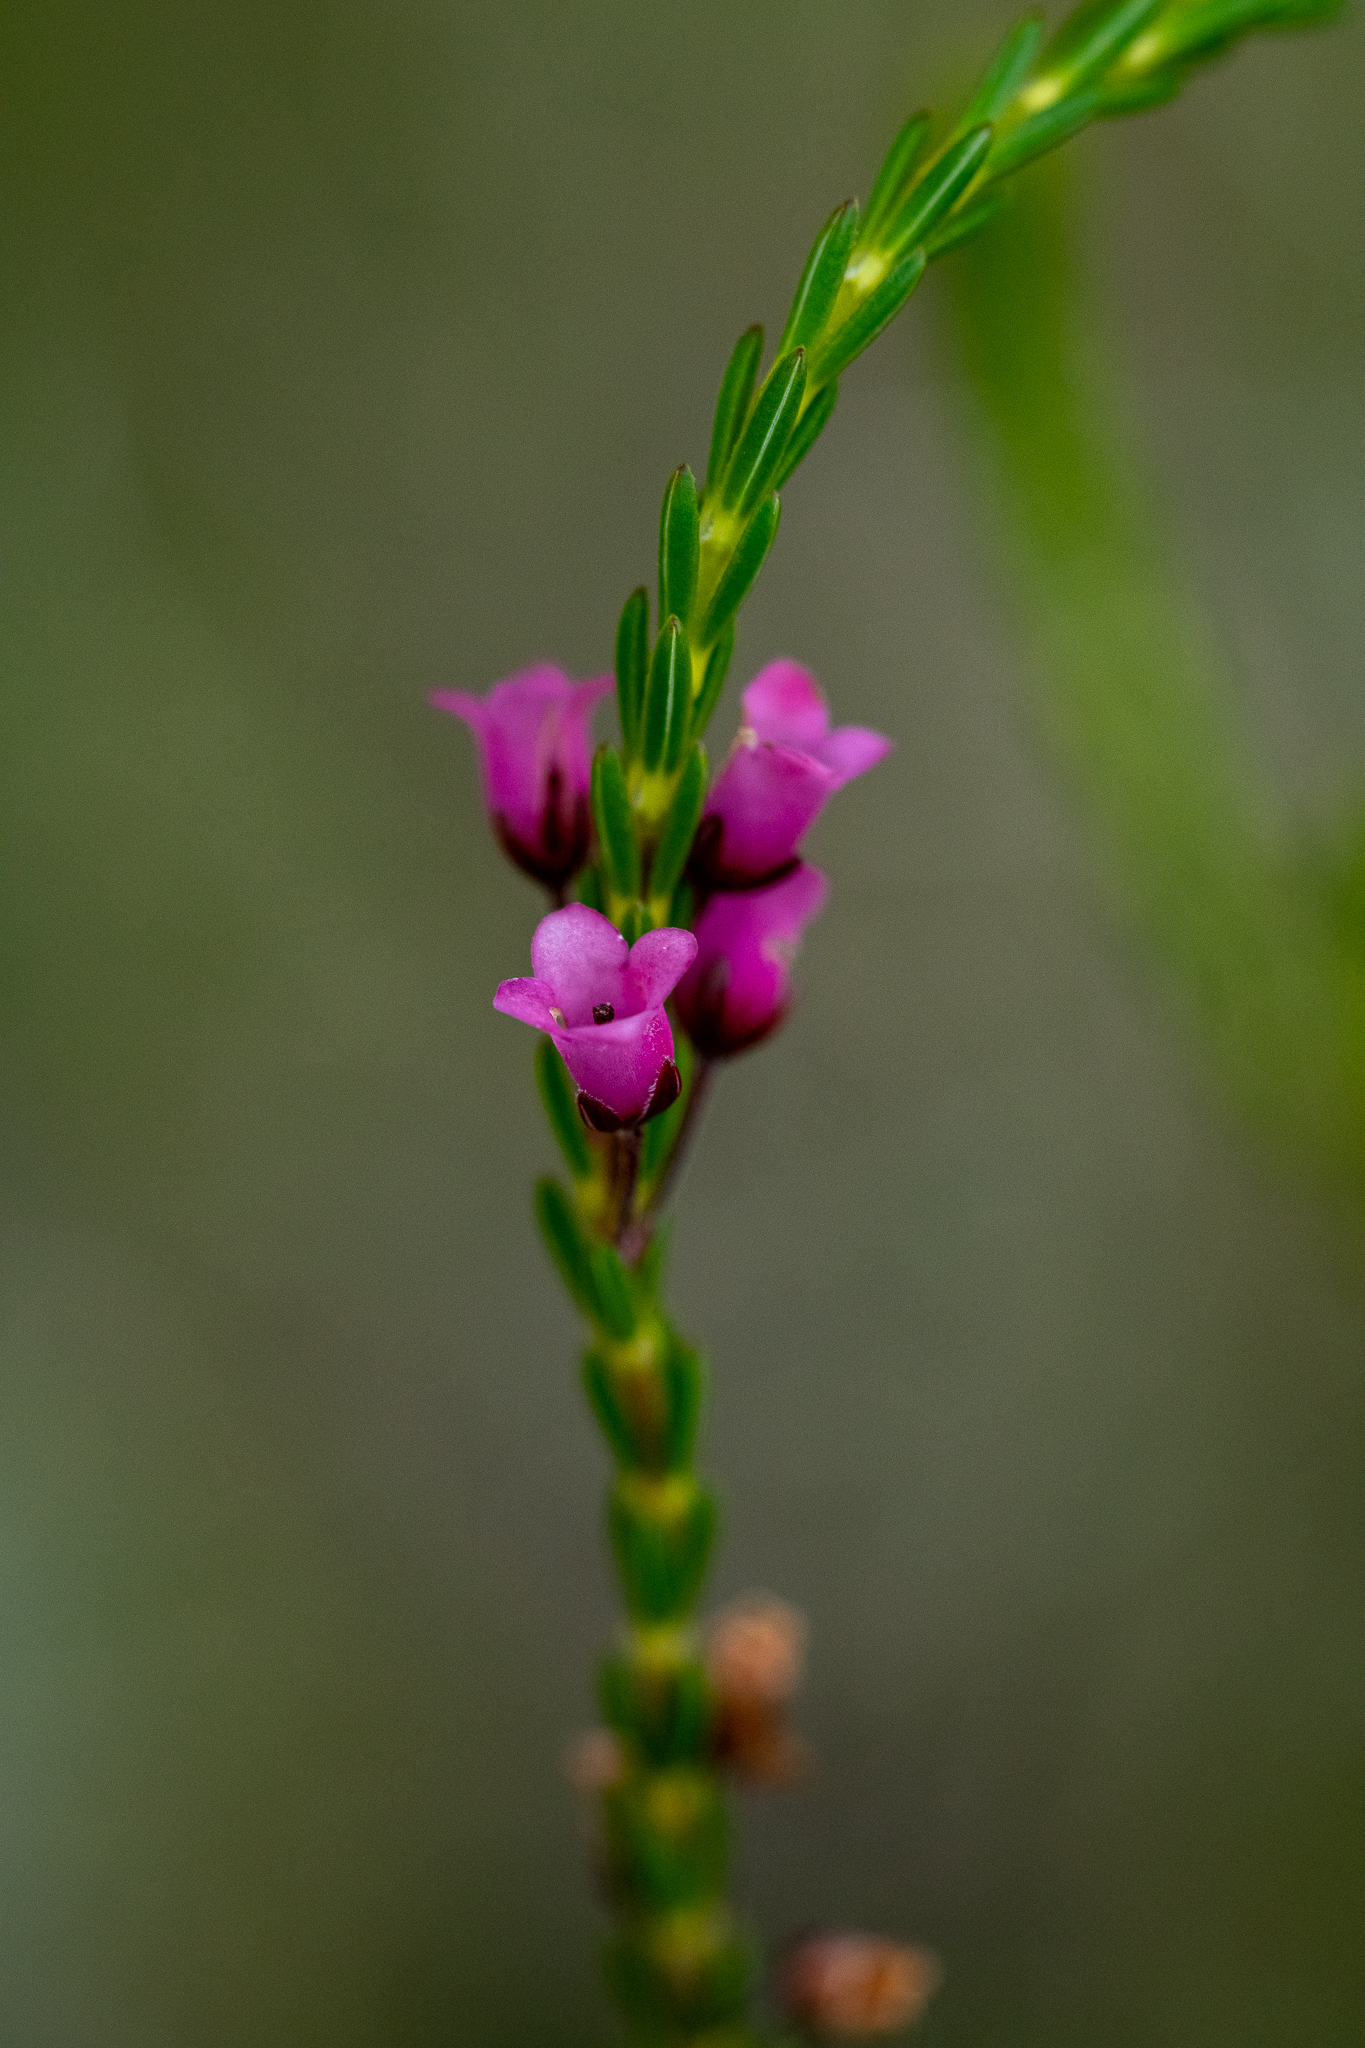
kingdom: Plantae
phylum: Tracheophyta
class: Magnoliopsida
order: Ericales
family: Ericaceae
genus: Erica
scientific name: Erica pulchella
